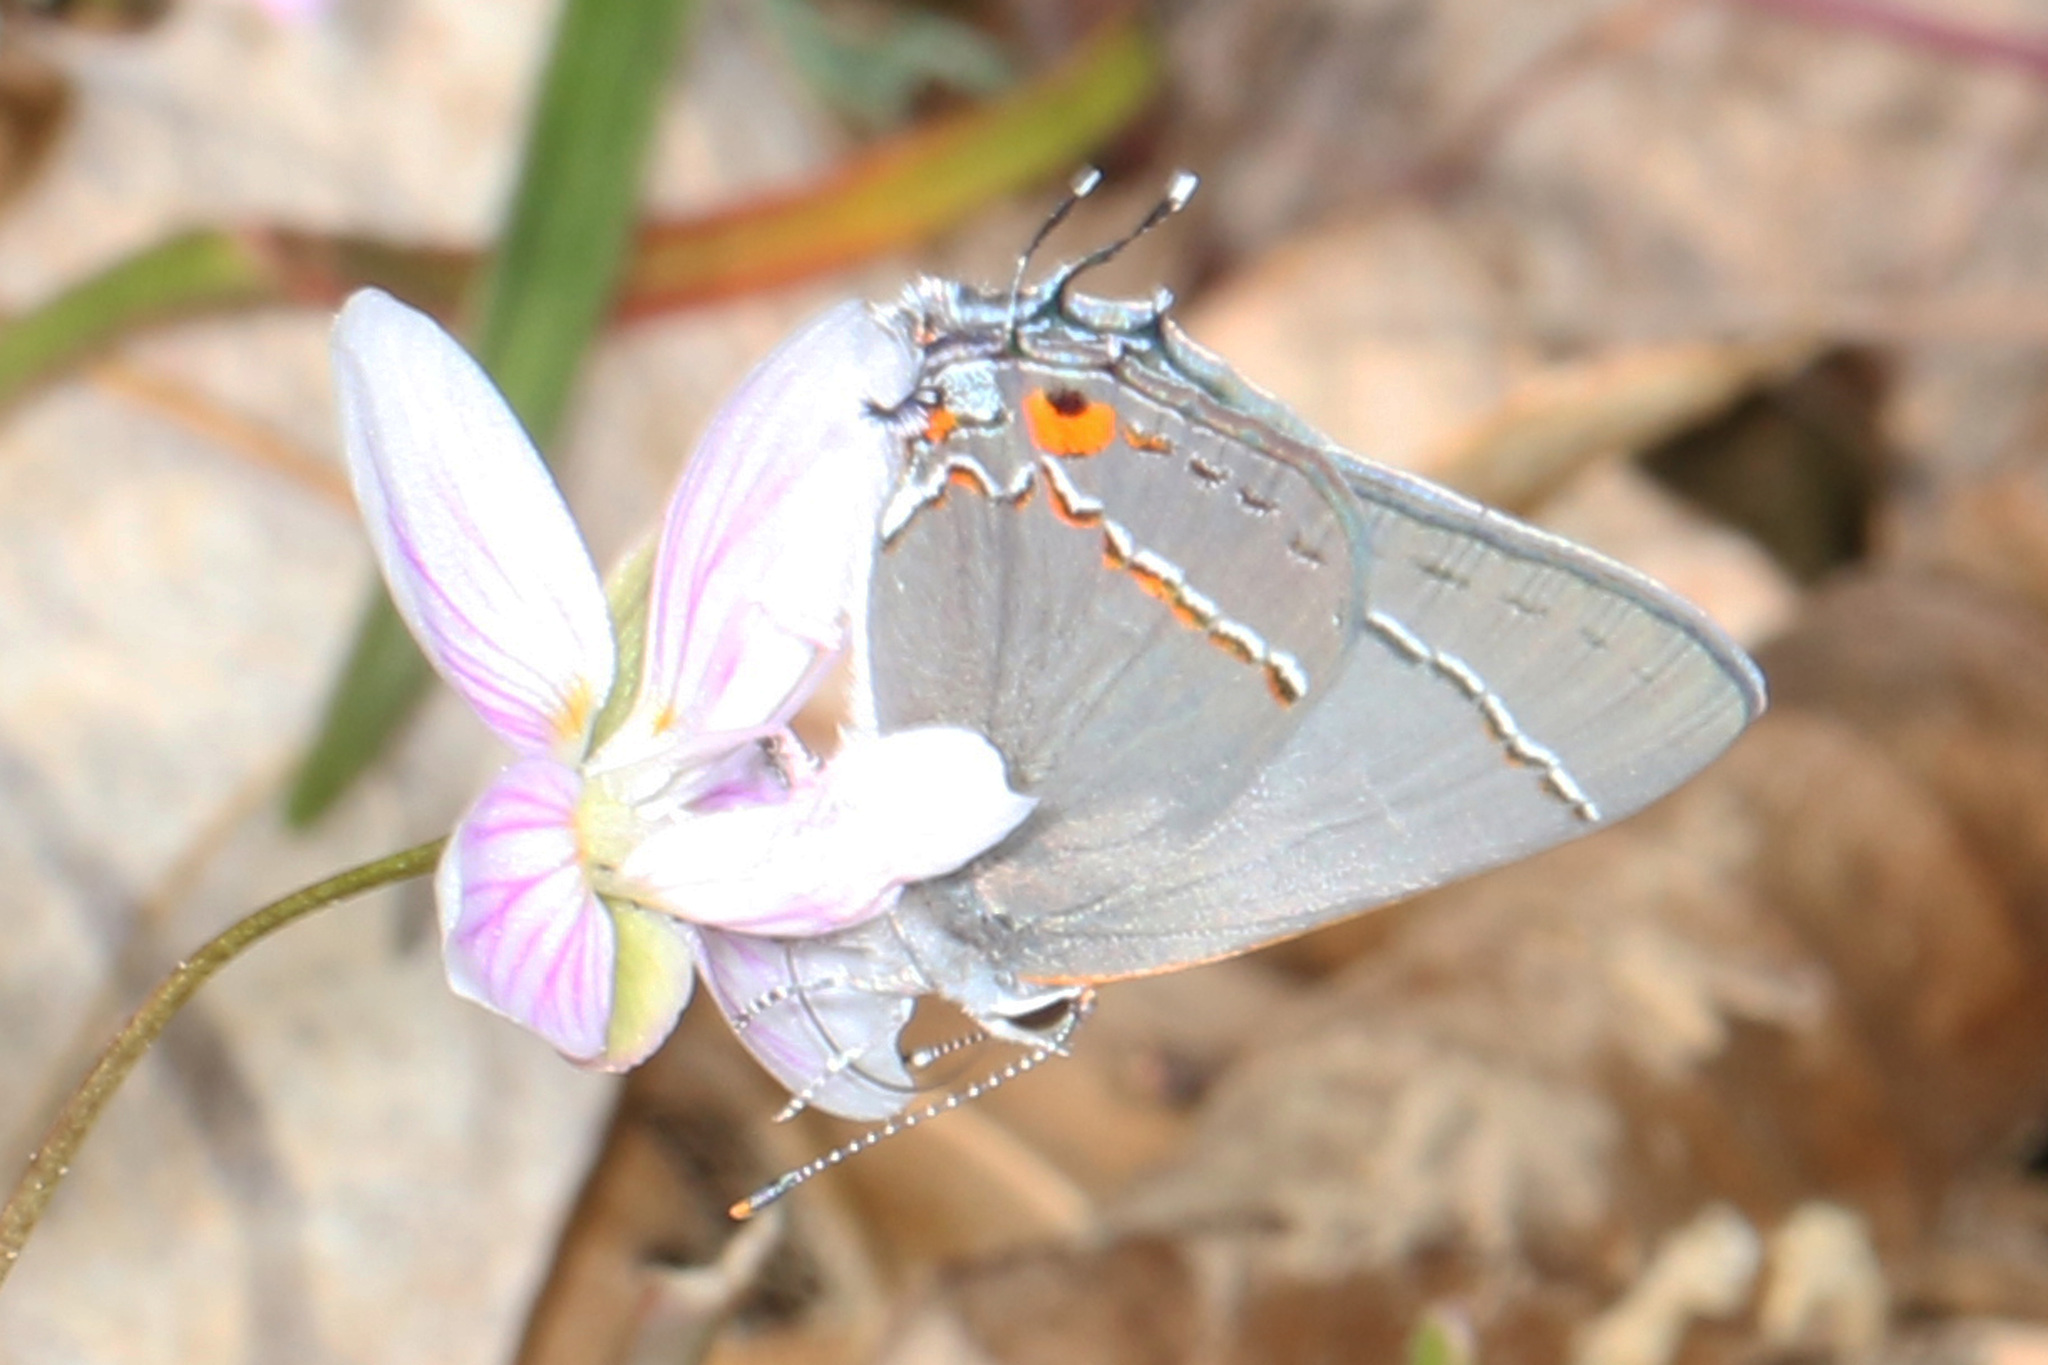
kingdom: Animalia
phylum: Arthropoda
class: Insecta
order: Lepidoptera
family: Lycaenidae
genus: Strymon
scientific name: Strymon melinus
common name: Gray hairstreak
